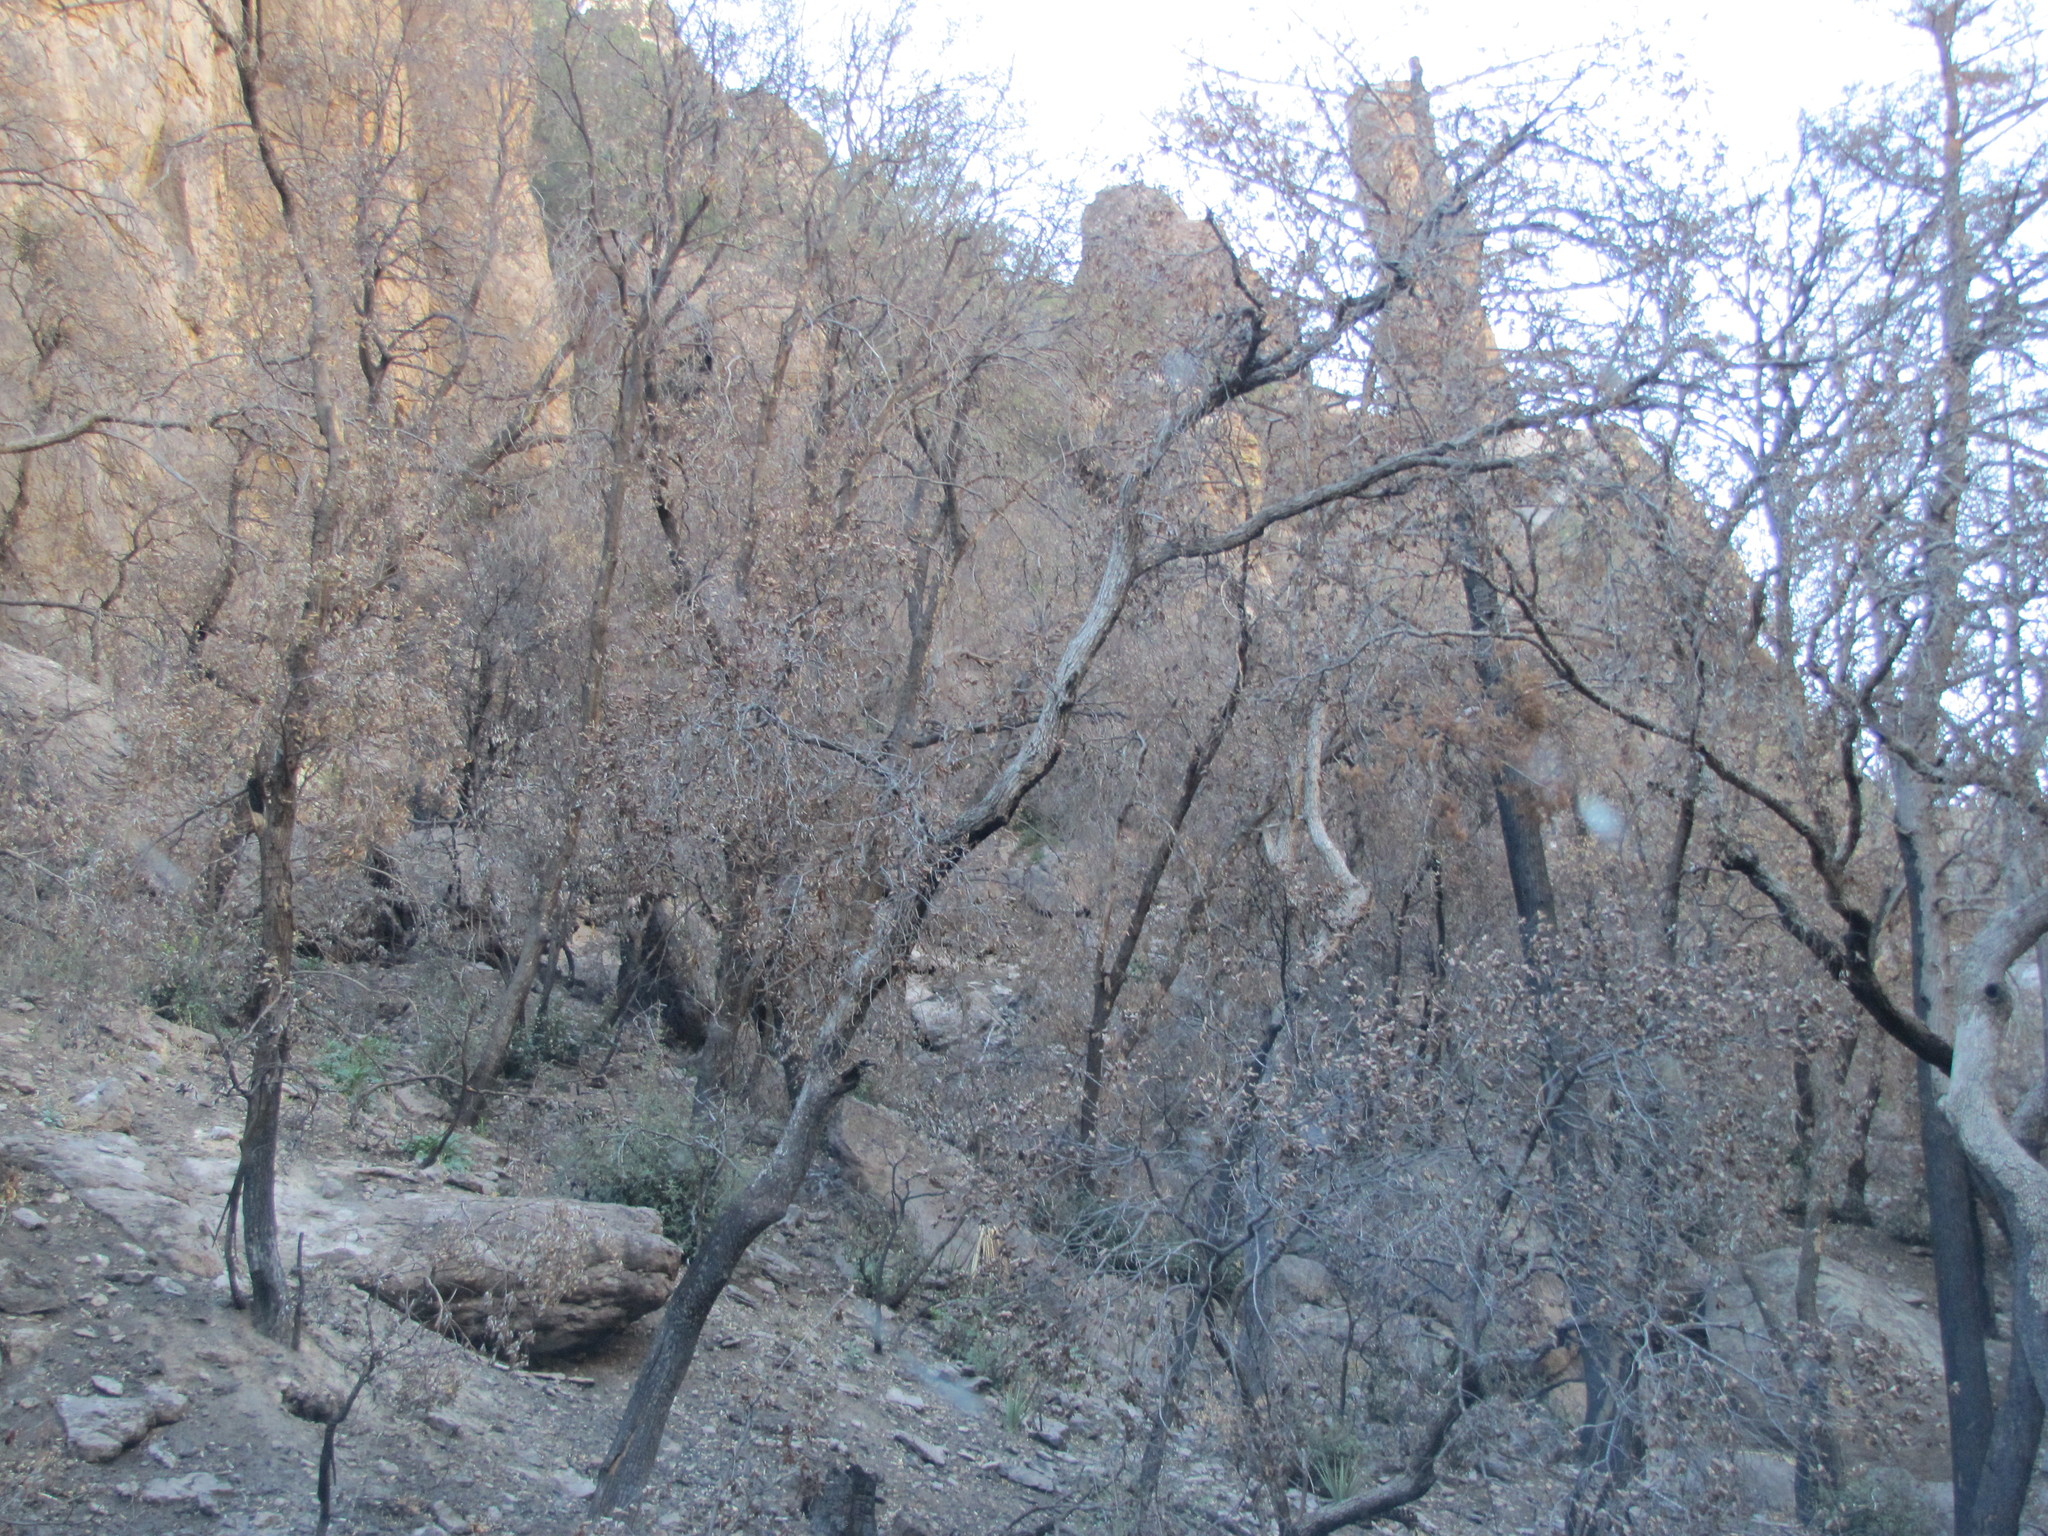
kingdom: Plantae
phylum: Tracheophyta
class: Magnoliopsida
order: Fagales
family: Fagaceae
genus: Quercus
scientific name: Quercus gambelii
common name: Gambel oak
